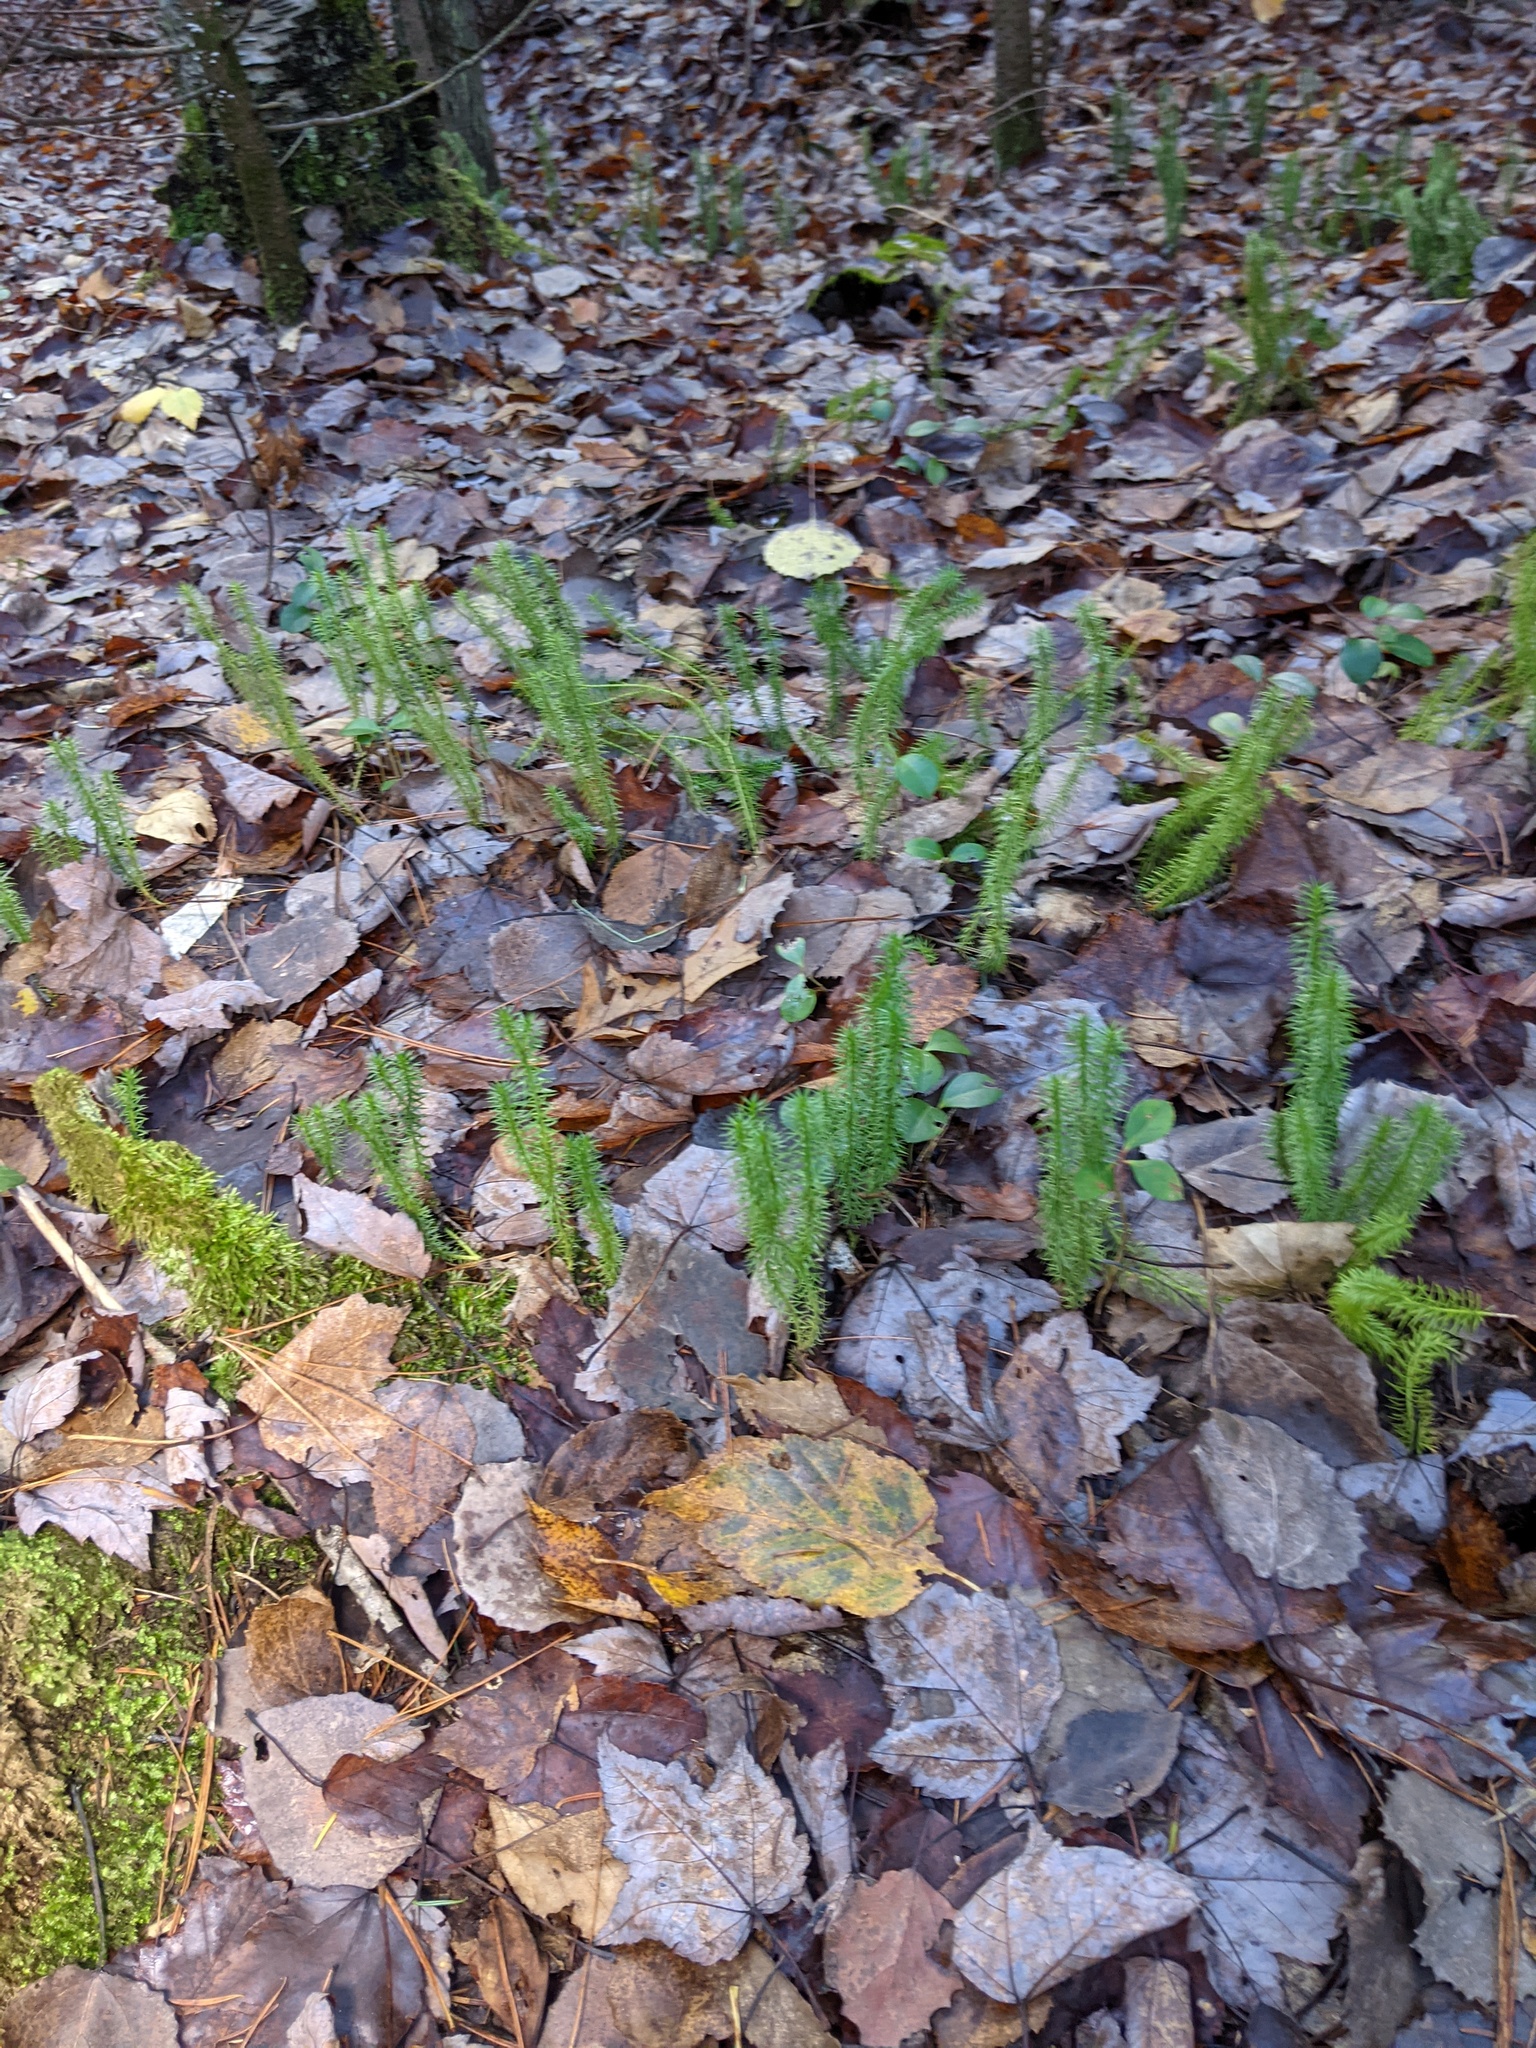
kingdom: Plantae
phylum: Tracheophyta
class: Lycopodiopsida
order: Lycopodiales
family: Lycopodiaceae
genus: Spinulum
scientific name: Spinulum annotinum
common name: Interrupted club-moss
